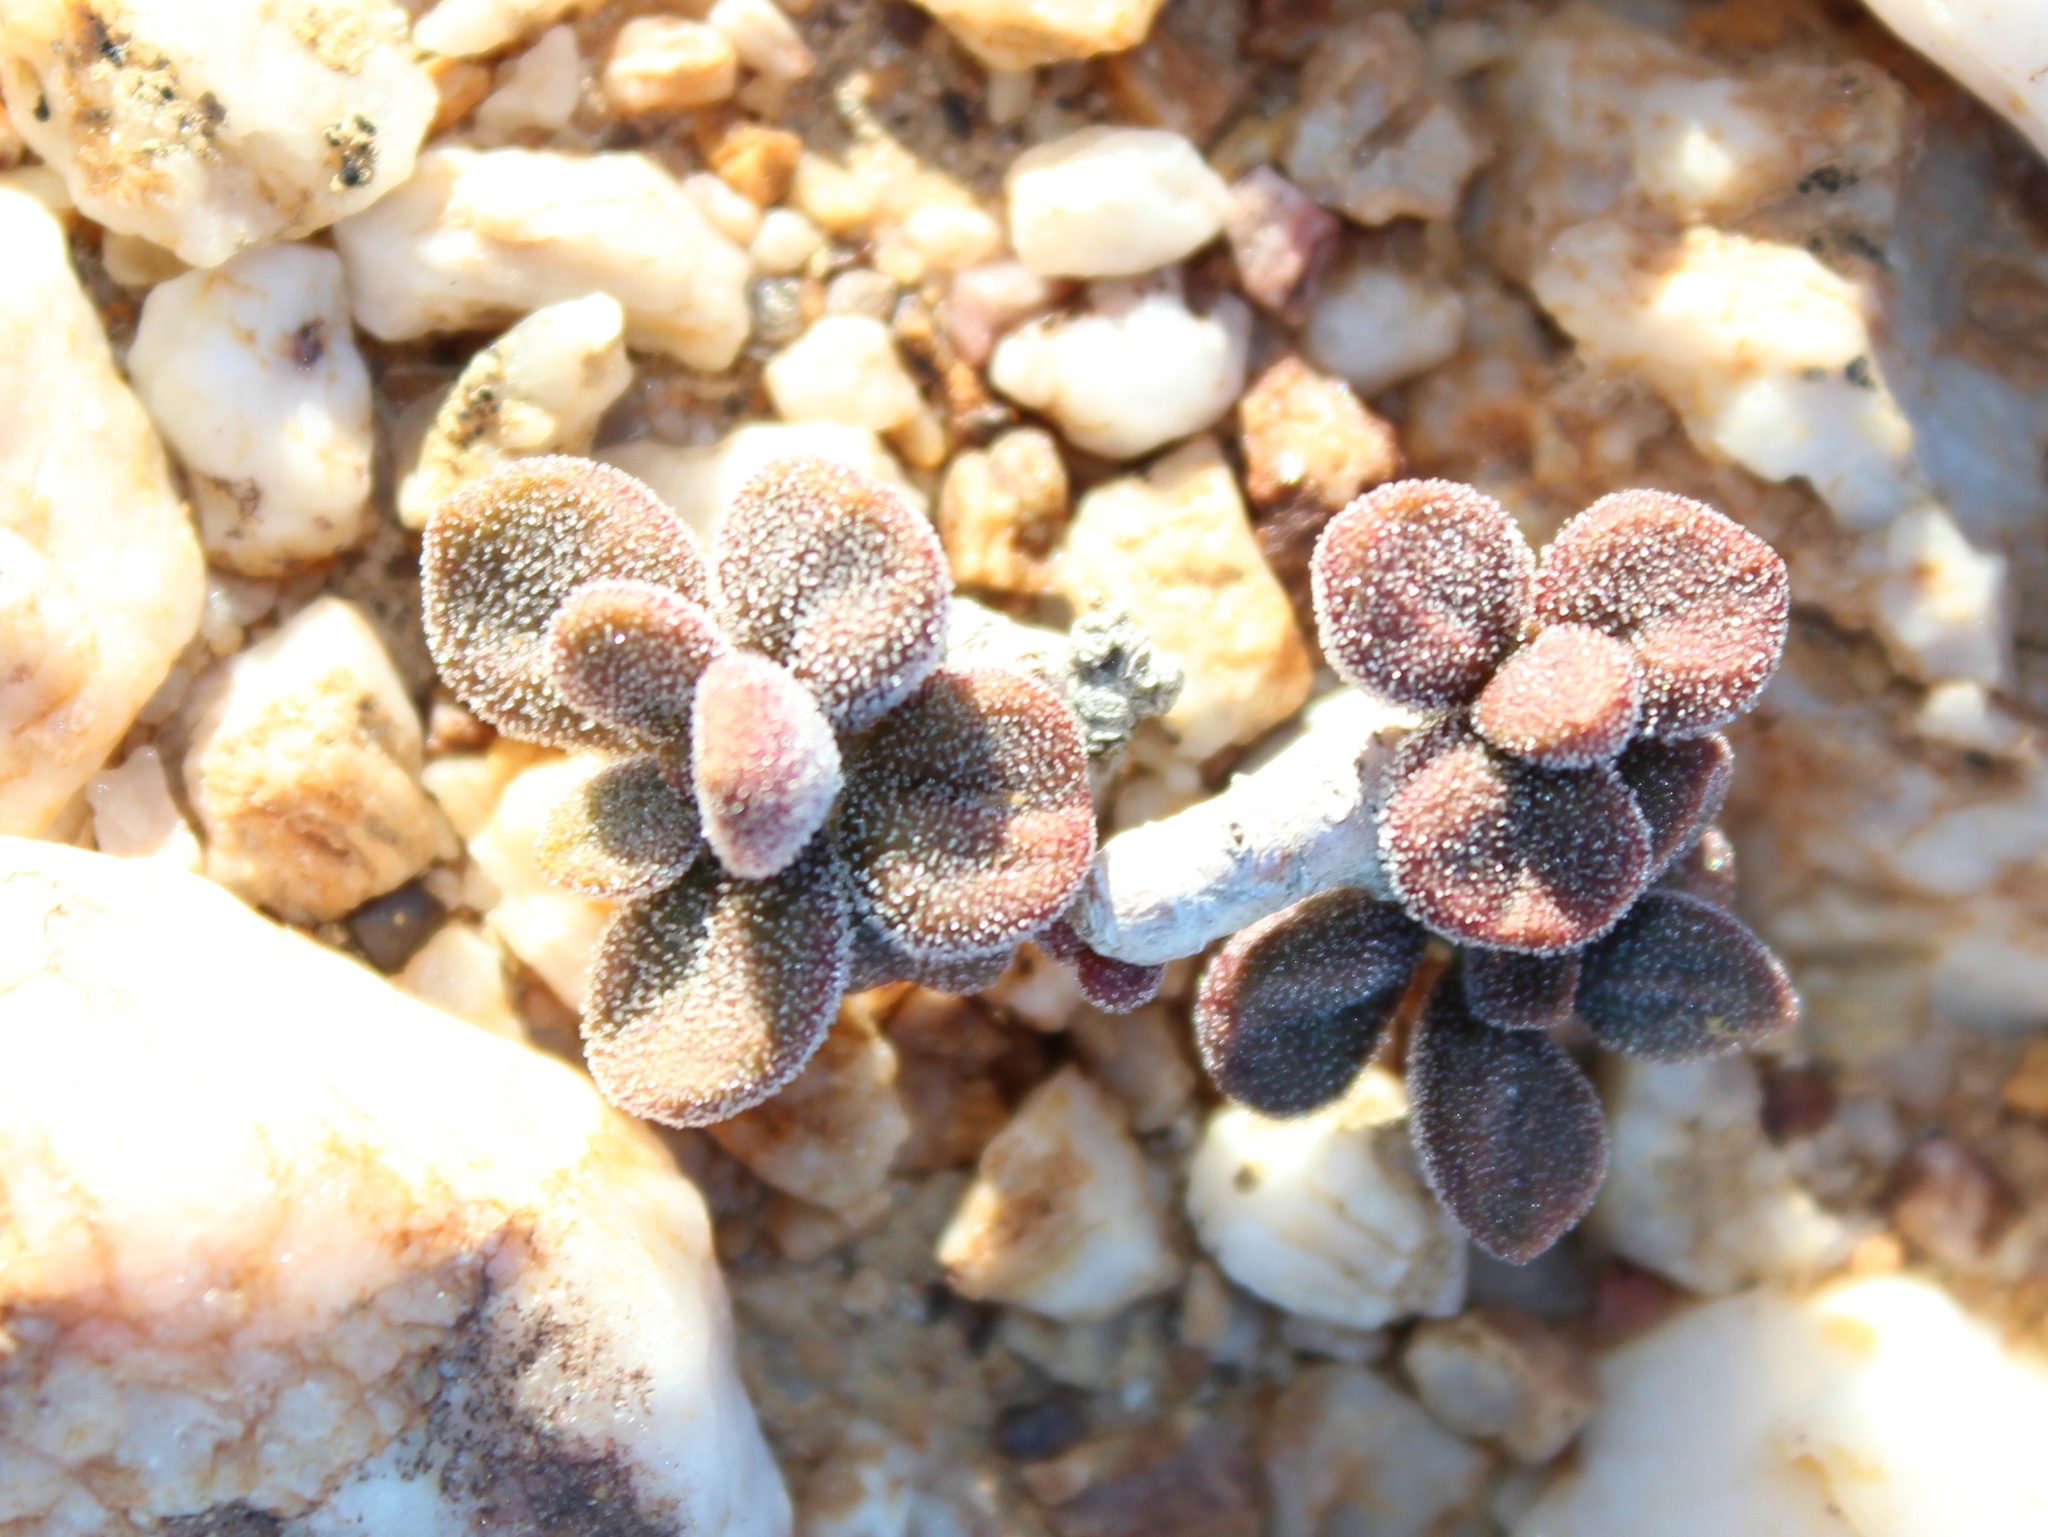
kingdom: Plantae
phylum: Tracheophyta
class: Magnoliopsida
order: Saxifragales
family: Crassulaceae
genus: Tylecodon
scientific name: Tylecodon pygmaeus
